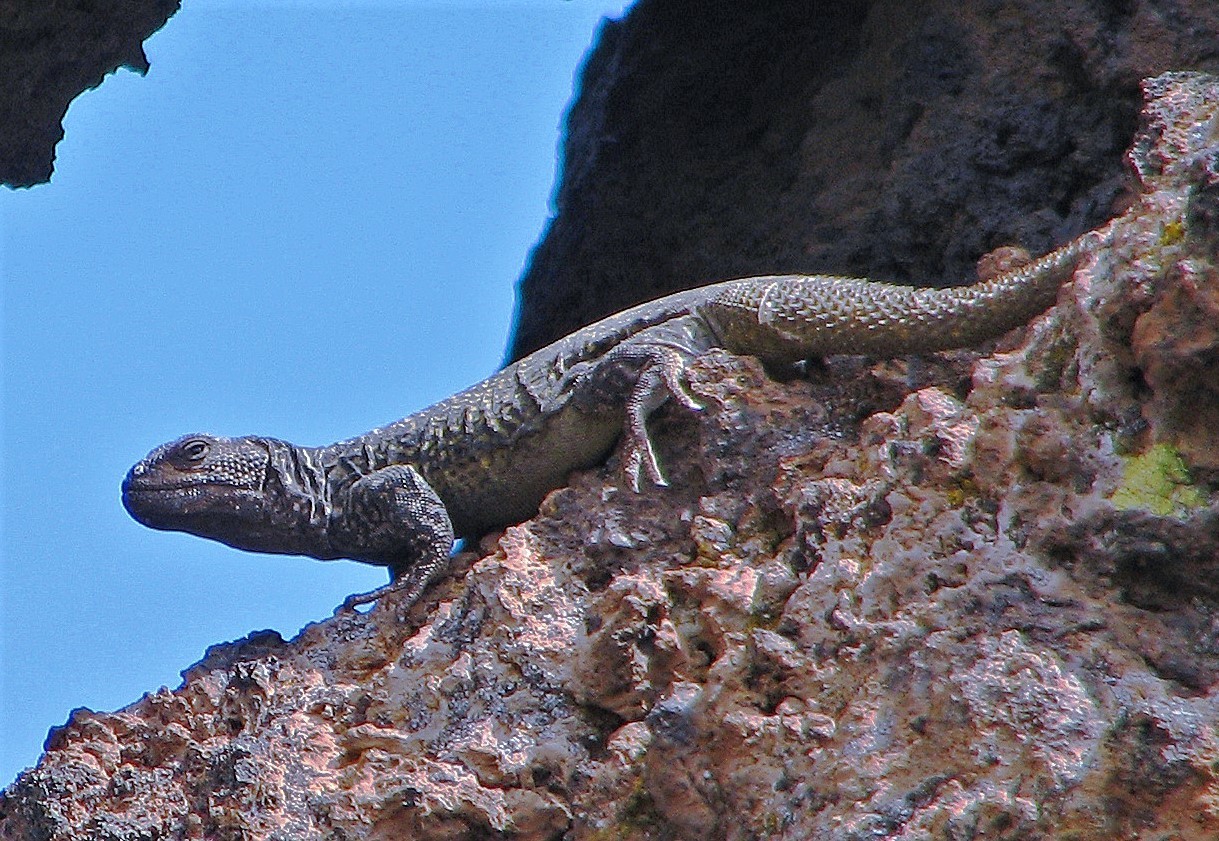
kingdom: Animalia
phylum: Chordata
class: Squamata
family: Liolaemidae
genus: Phymaturus
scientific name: Phymaturus roigorum
